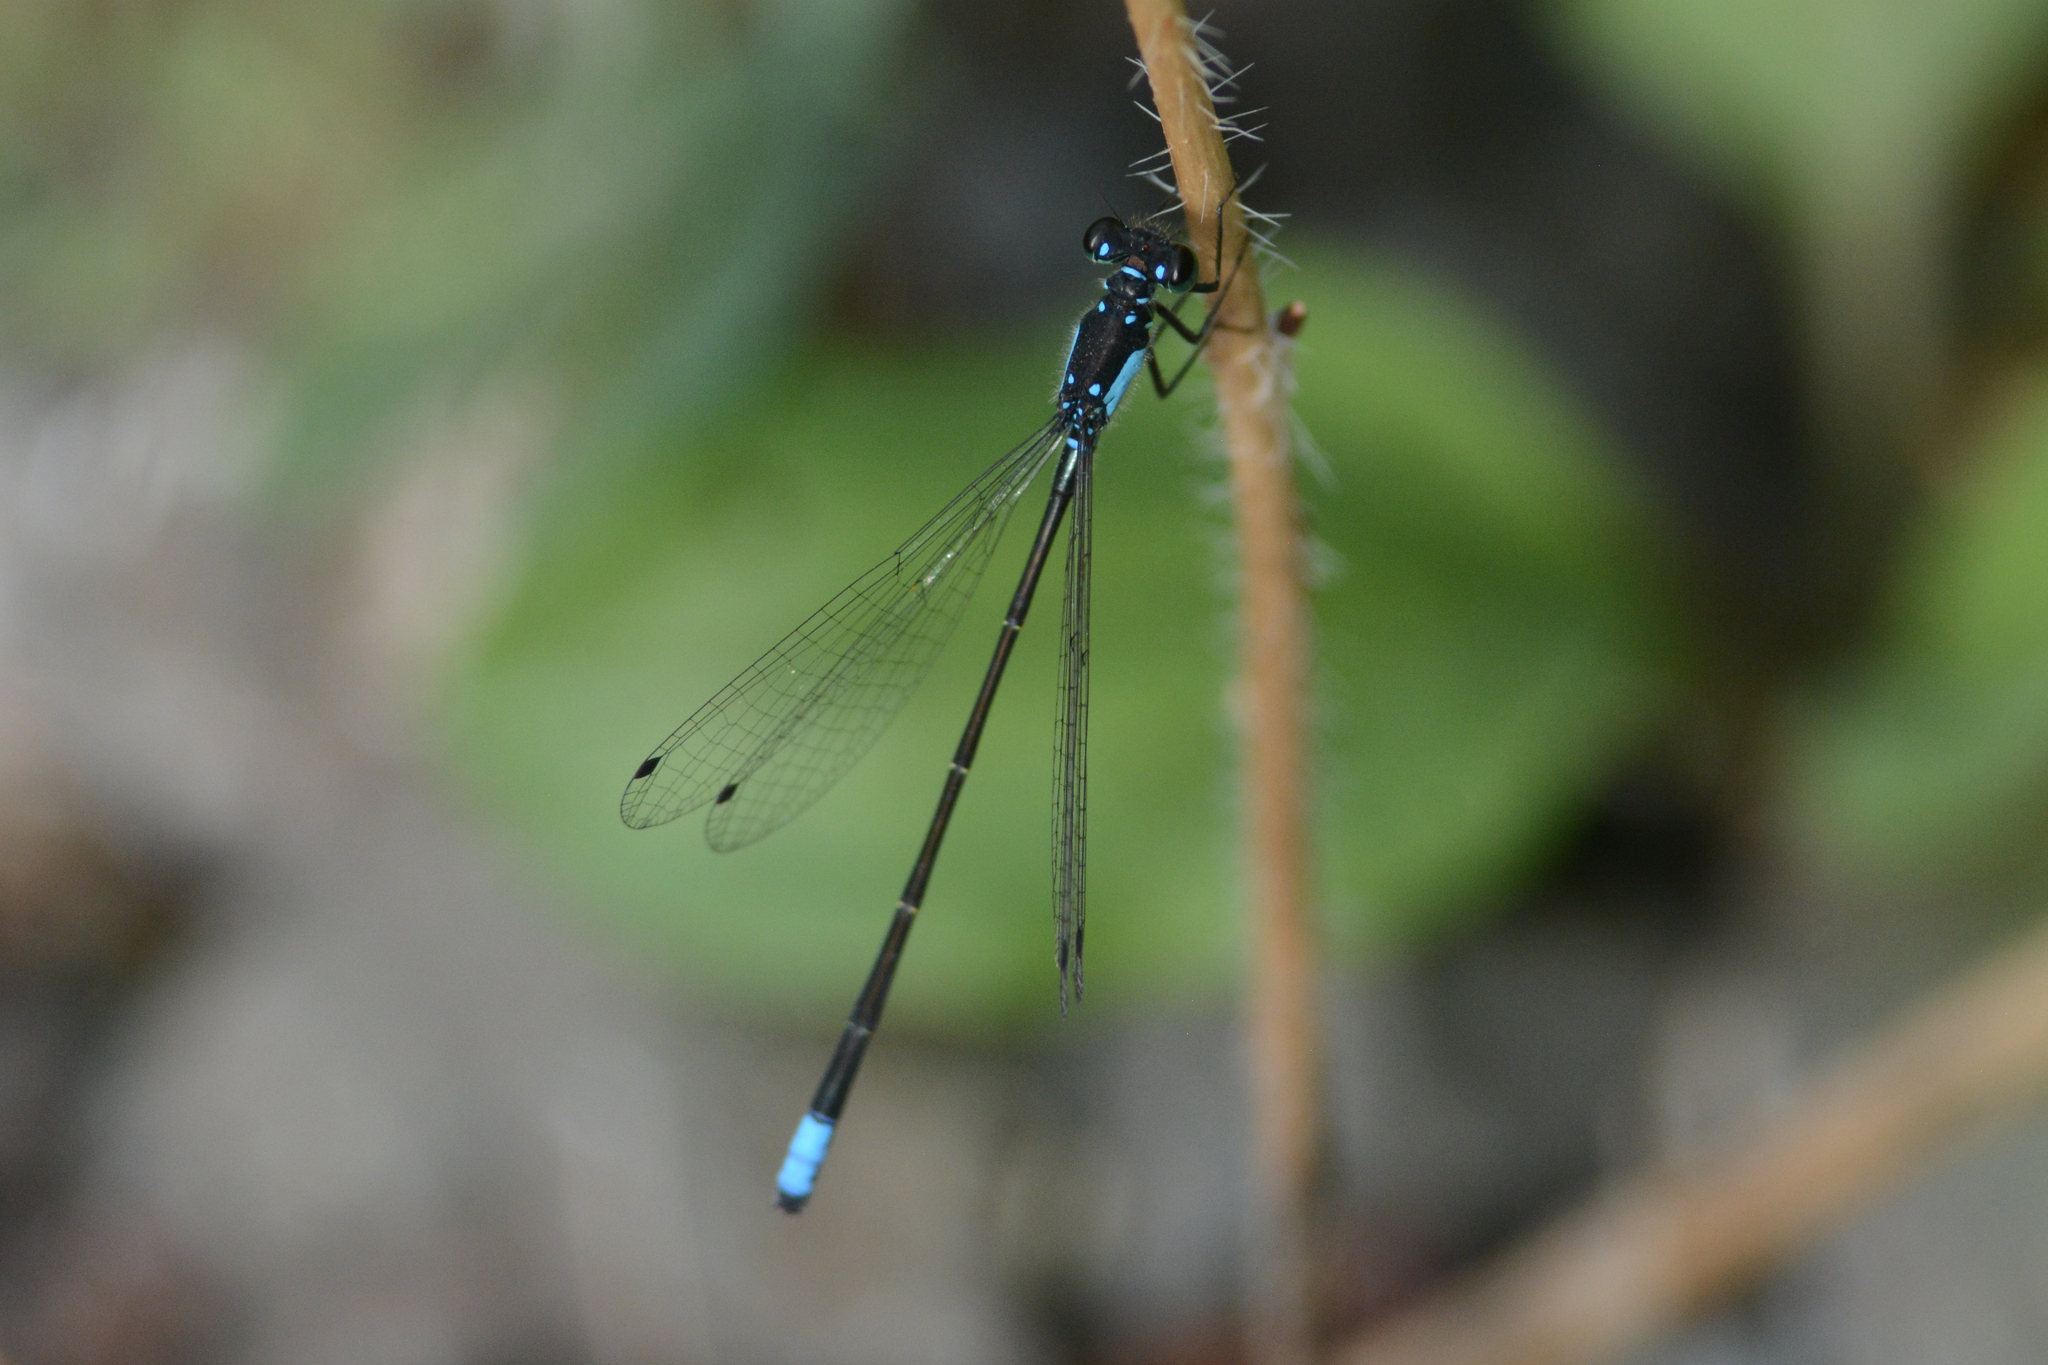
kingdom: Animalia
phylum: Arthropoda
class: Insecta
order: Odonata
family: Coenagrionidae
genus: Ischnura
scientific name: Ischnura cervula
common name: Pacific forktail
